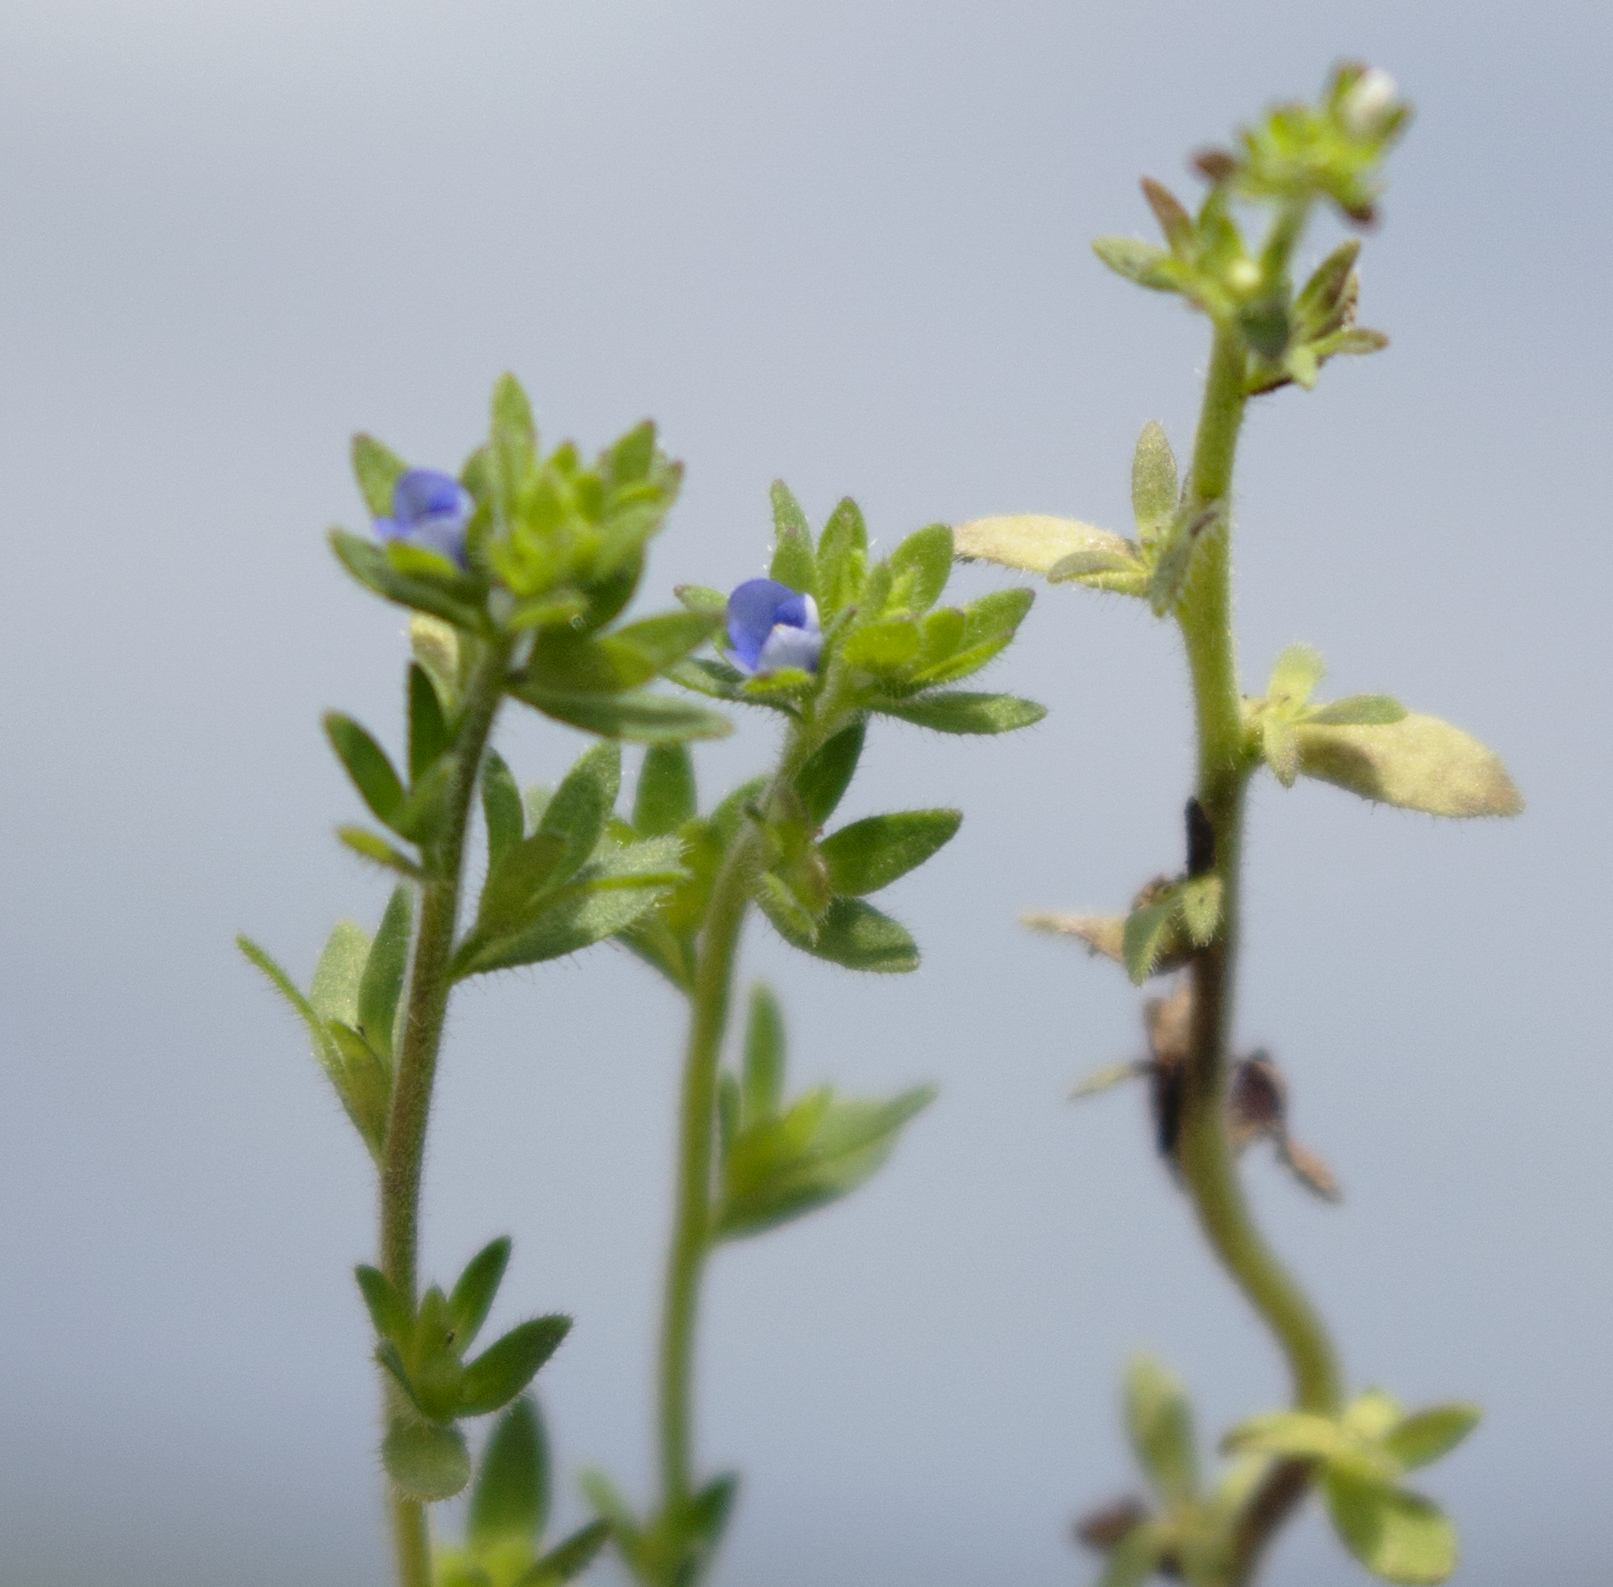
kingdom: Plantae
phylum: Tracheophyta
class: Magnoliopsida
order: Lamiales
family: Plantaginaceae
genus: Veronica
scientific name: Veronica arvensis
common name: Corn speedwell
